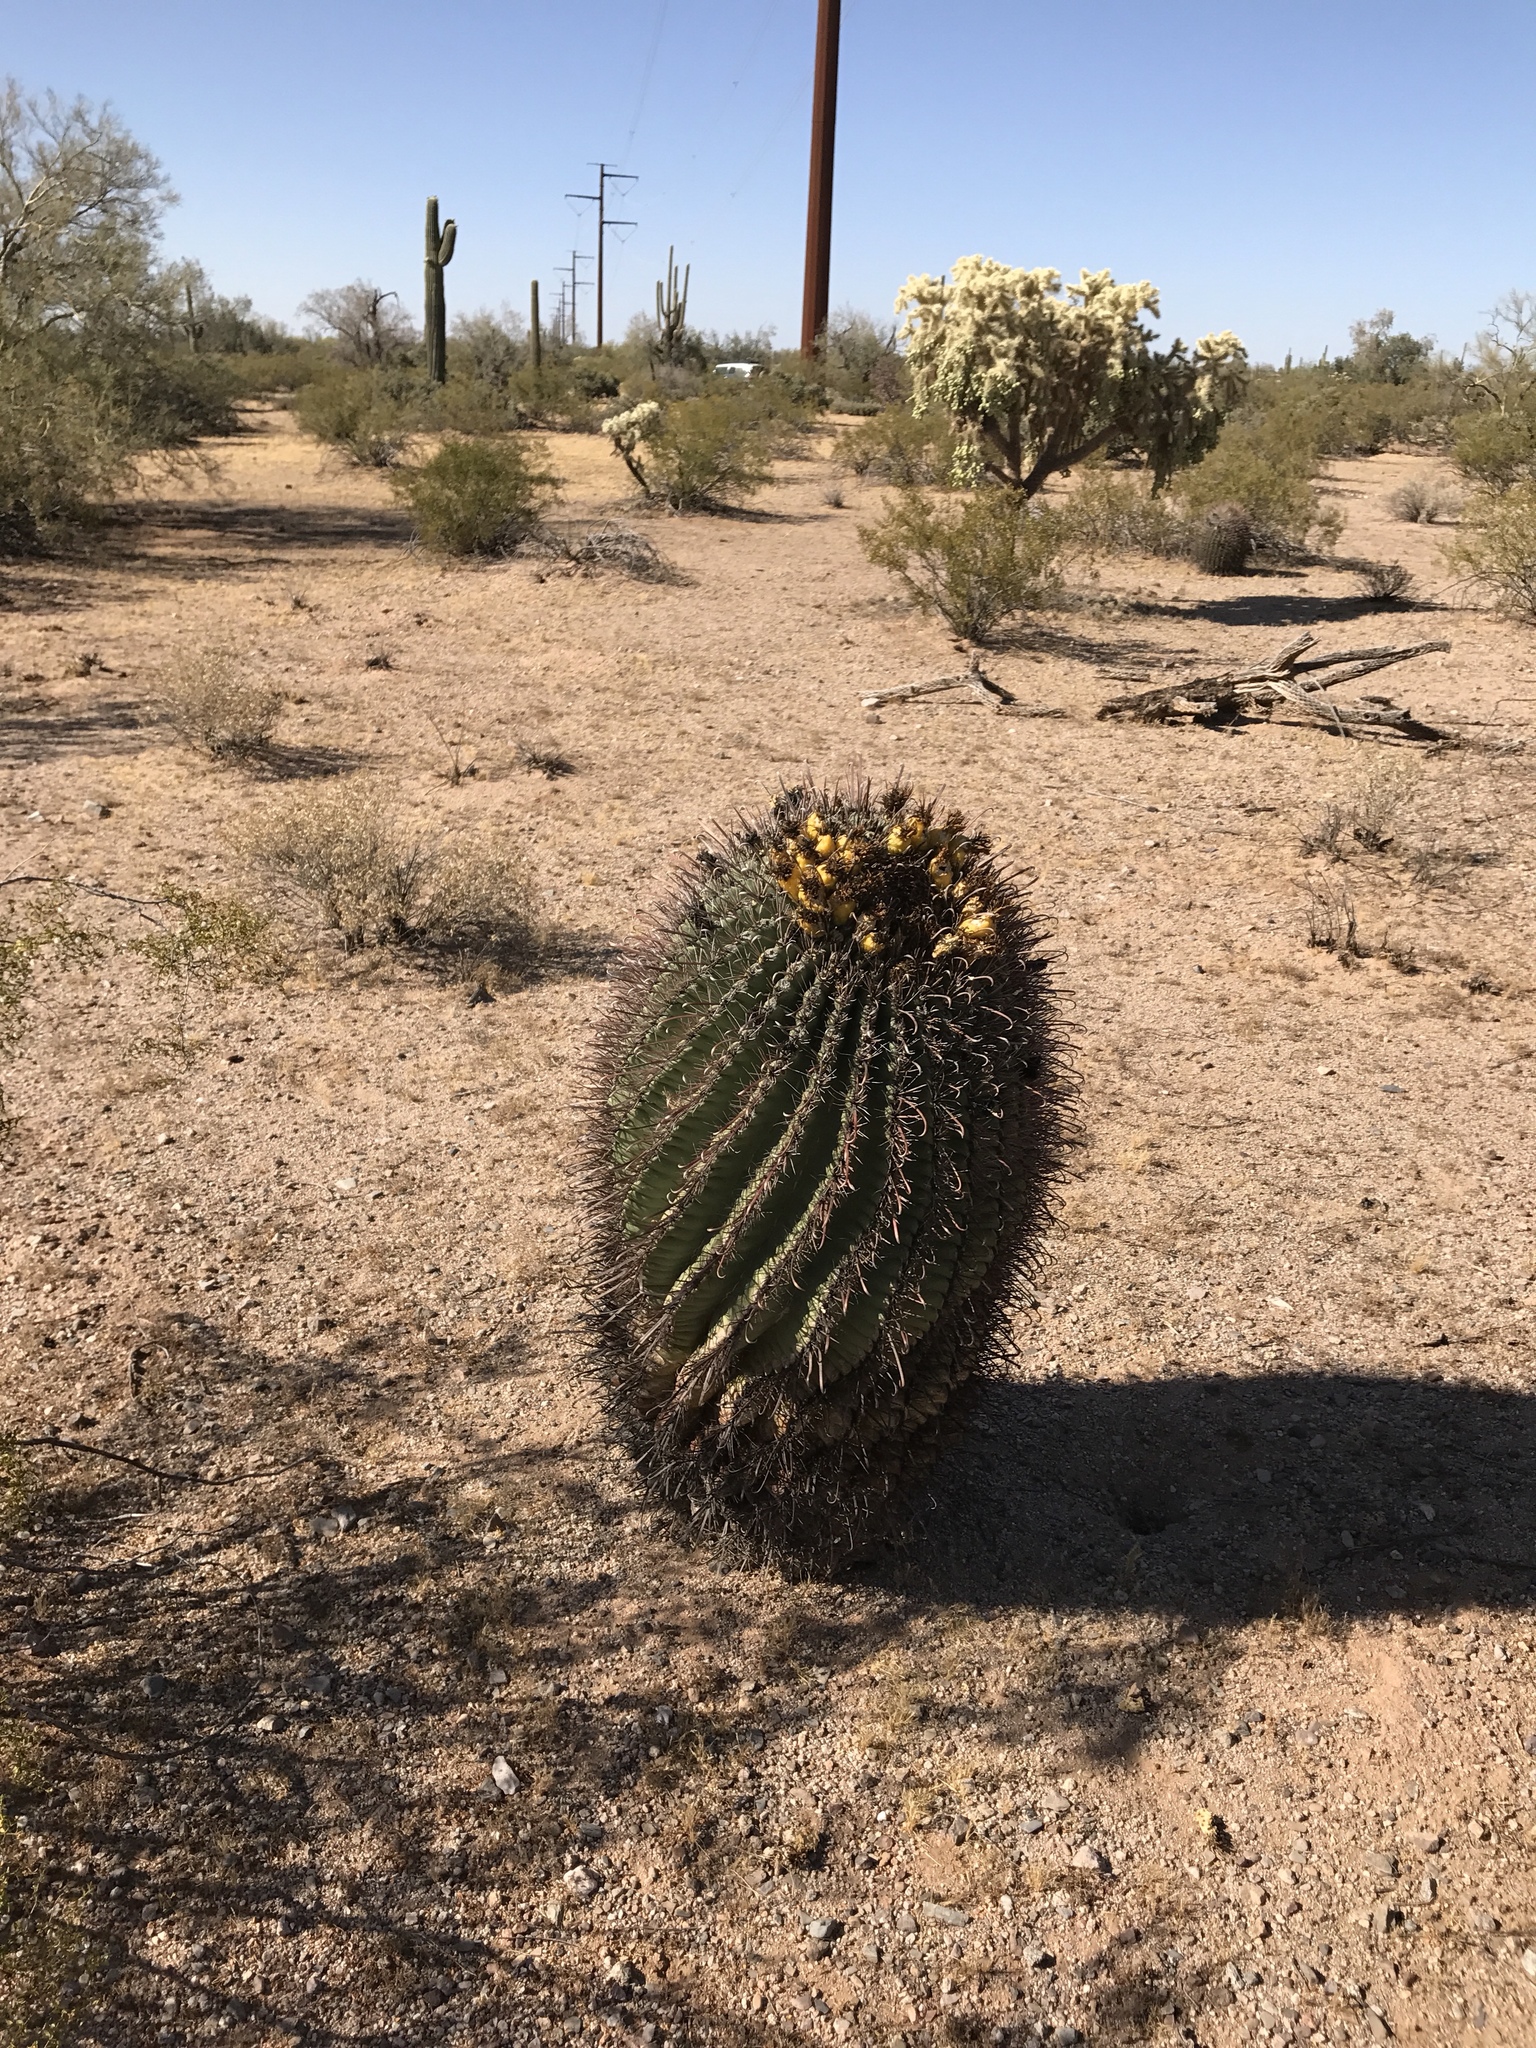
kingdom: Plantae
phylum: Tracheophyta
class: Magnoliopsida
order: Caryophyllales
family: Cactaceae
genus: Ferocactus
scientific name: Ferocactus wislizeni
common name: Candy barrel cactus
